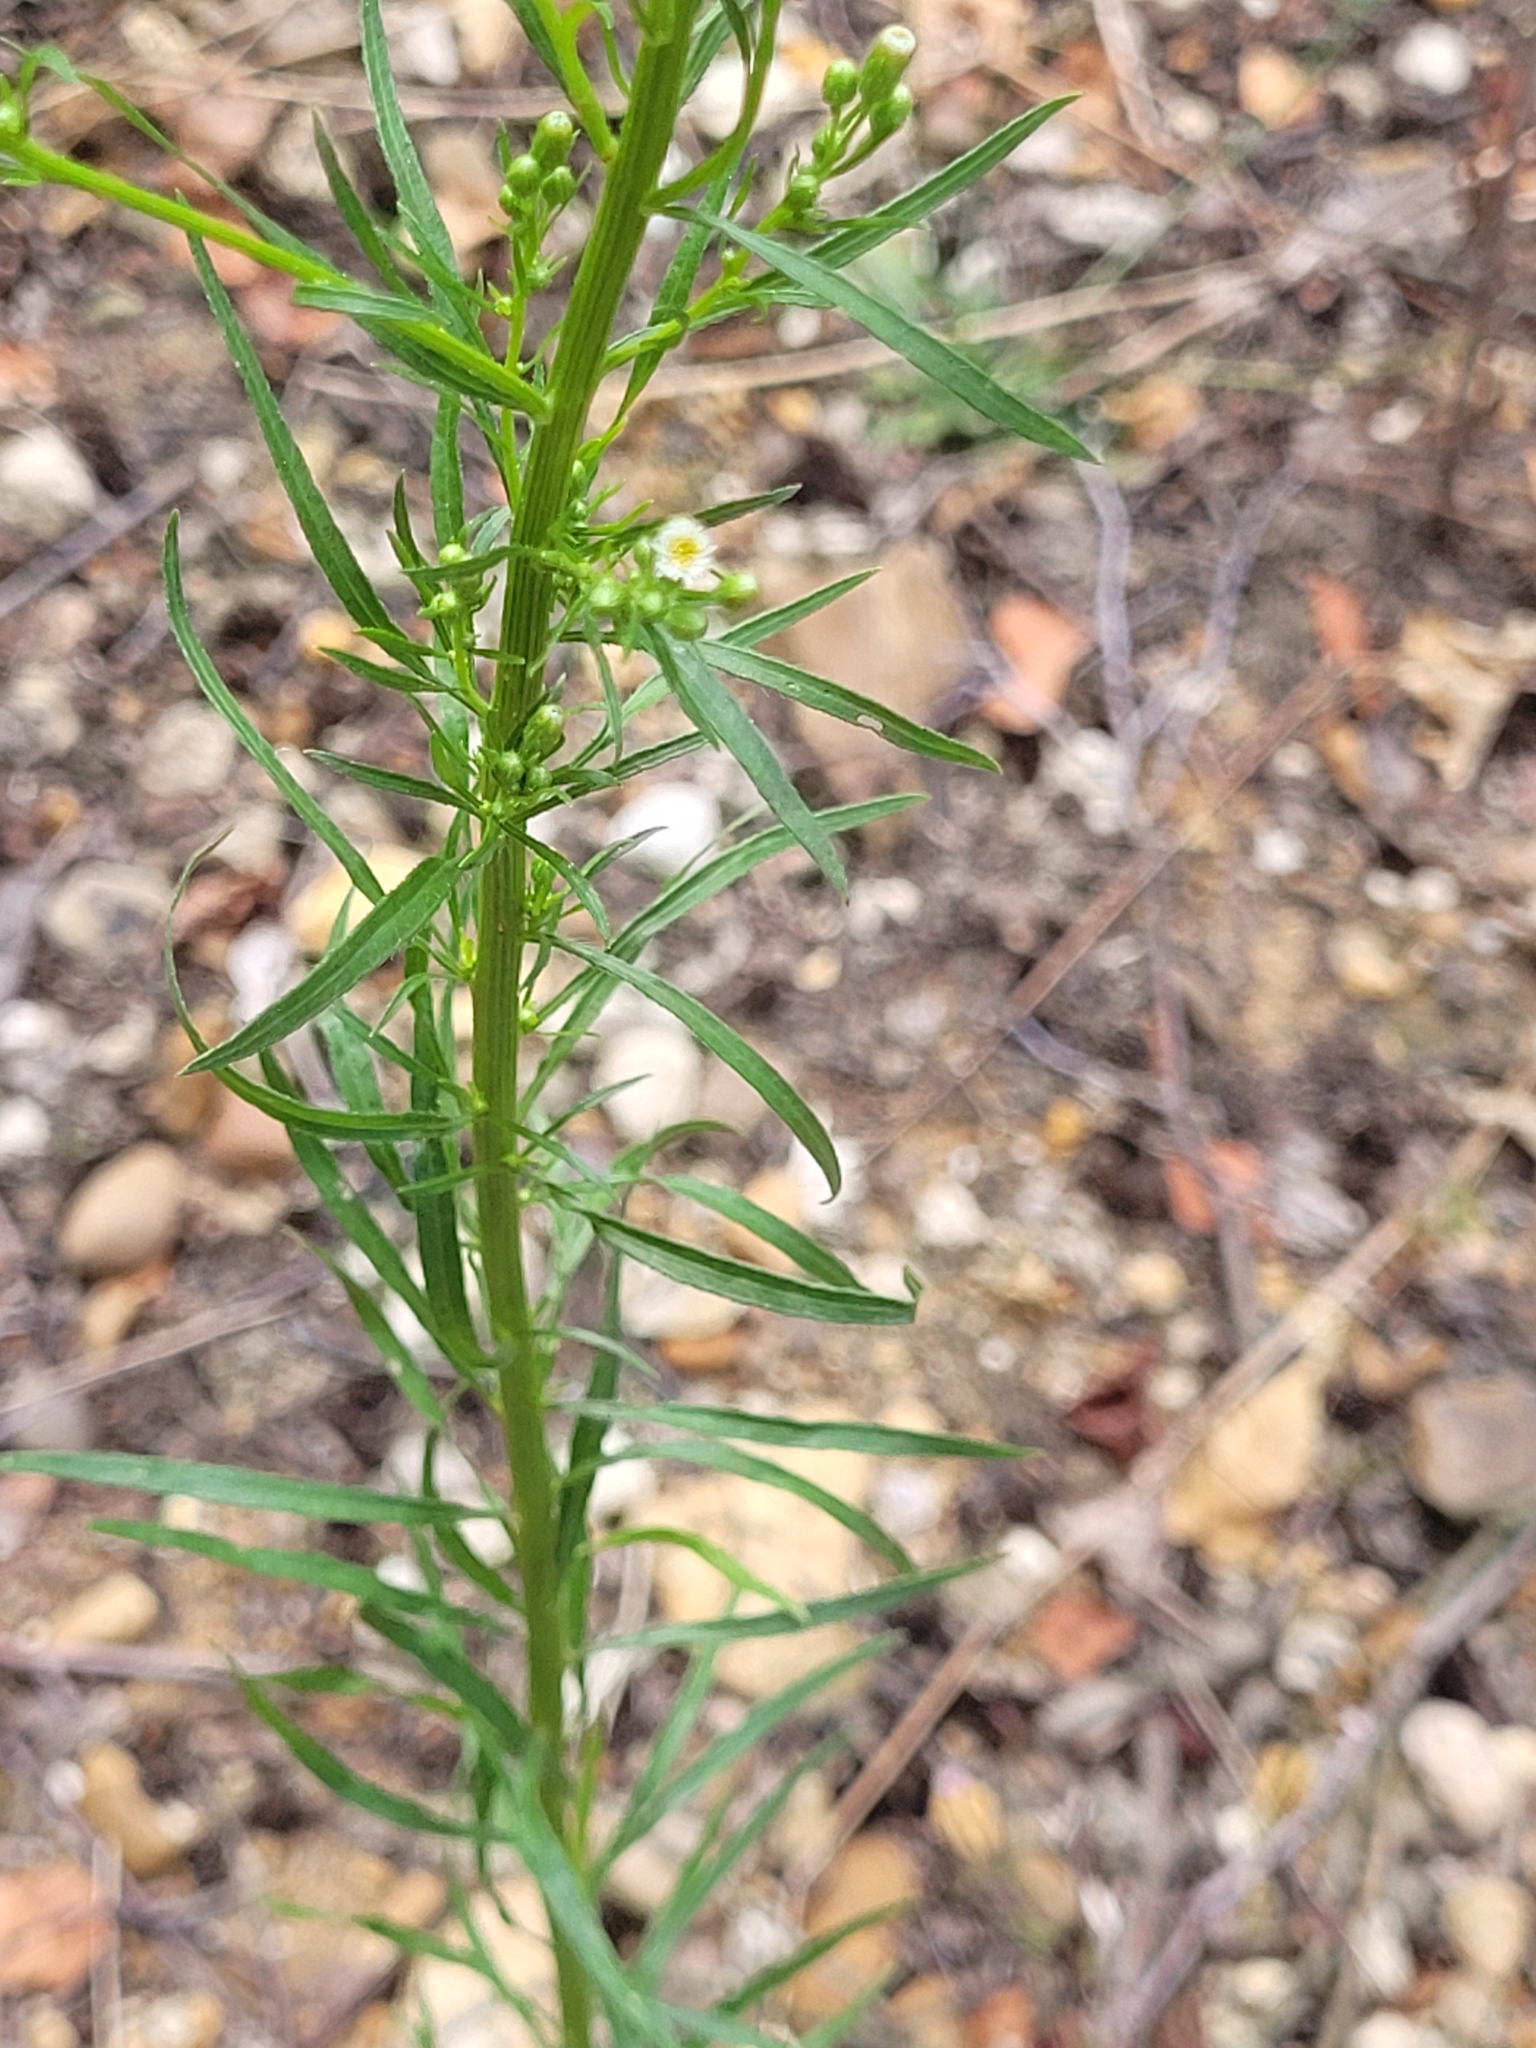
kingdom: Plantae
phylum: Tracheophyta
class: Magnoliopsida
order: Asterales
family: Asteraceae
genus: Erigeron
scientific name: Erigeron canadensis
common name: Canadian fleabane
